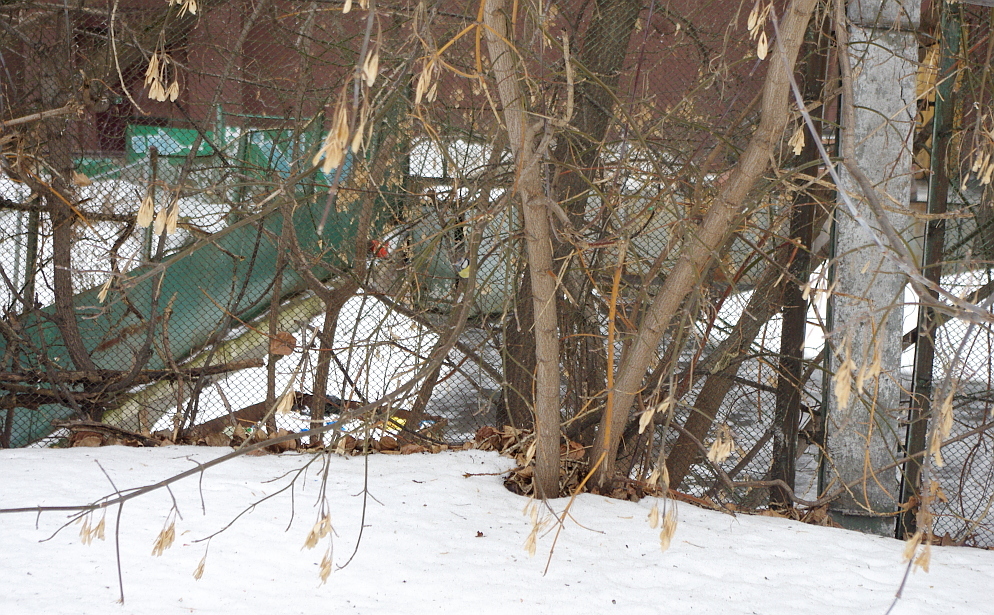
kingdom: Plantae
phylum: Tracheophyta
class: Magnoliopsida
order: Sapindales
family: Sapindaceae
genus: Acer
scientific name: Acer negundo
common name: Ashleaf maple
